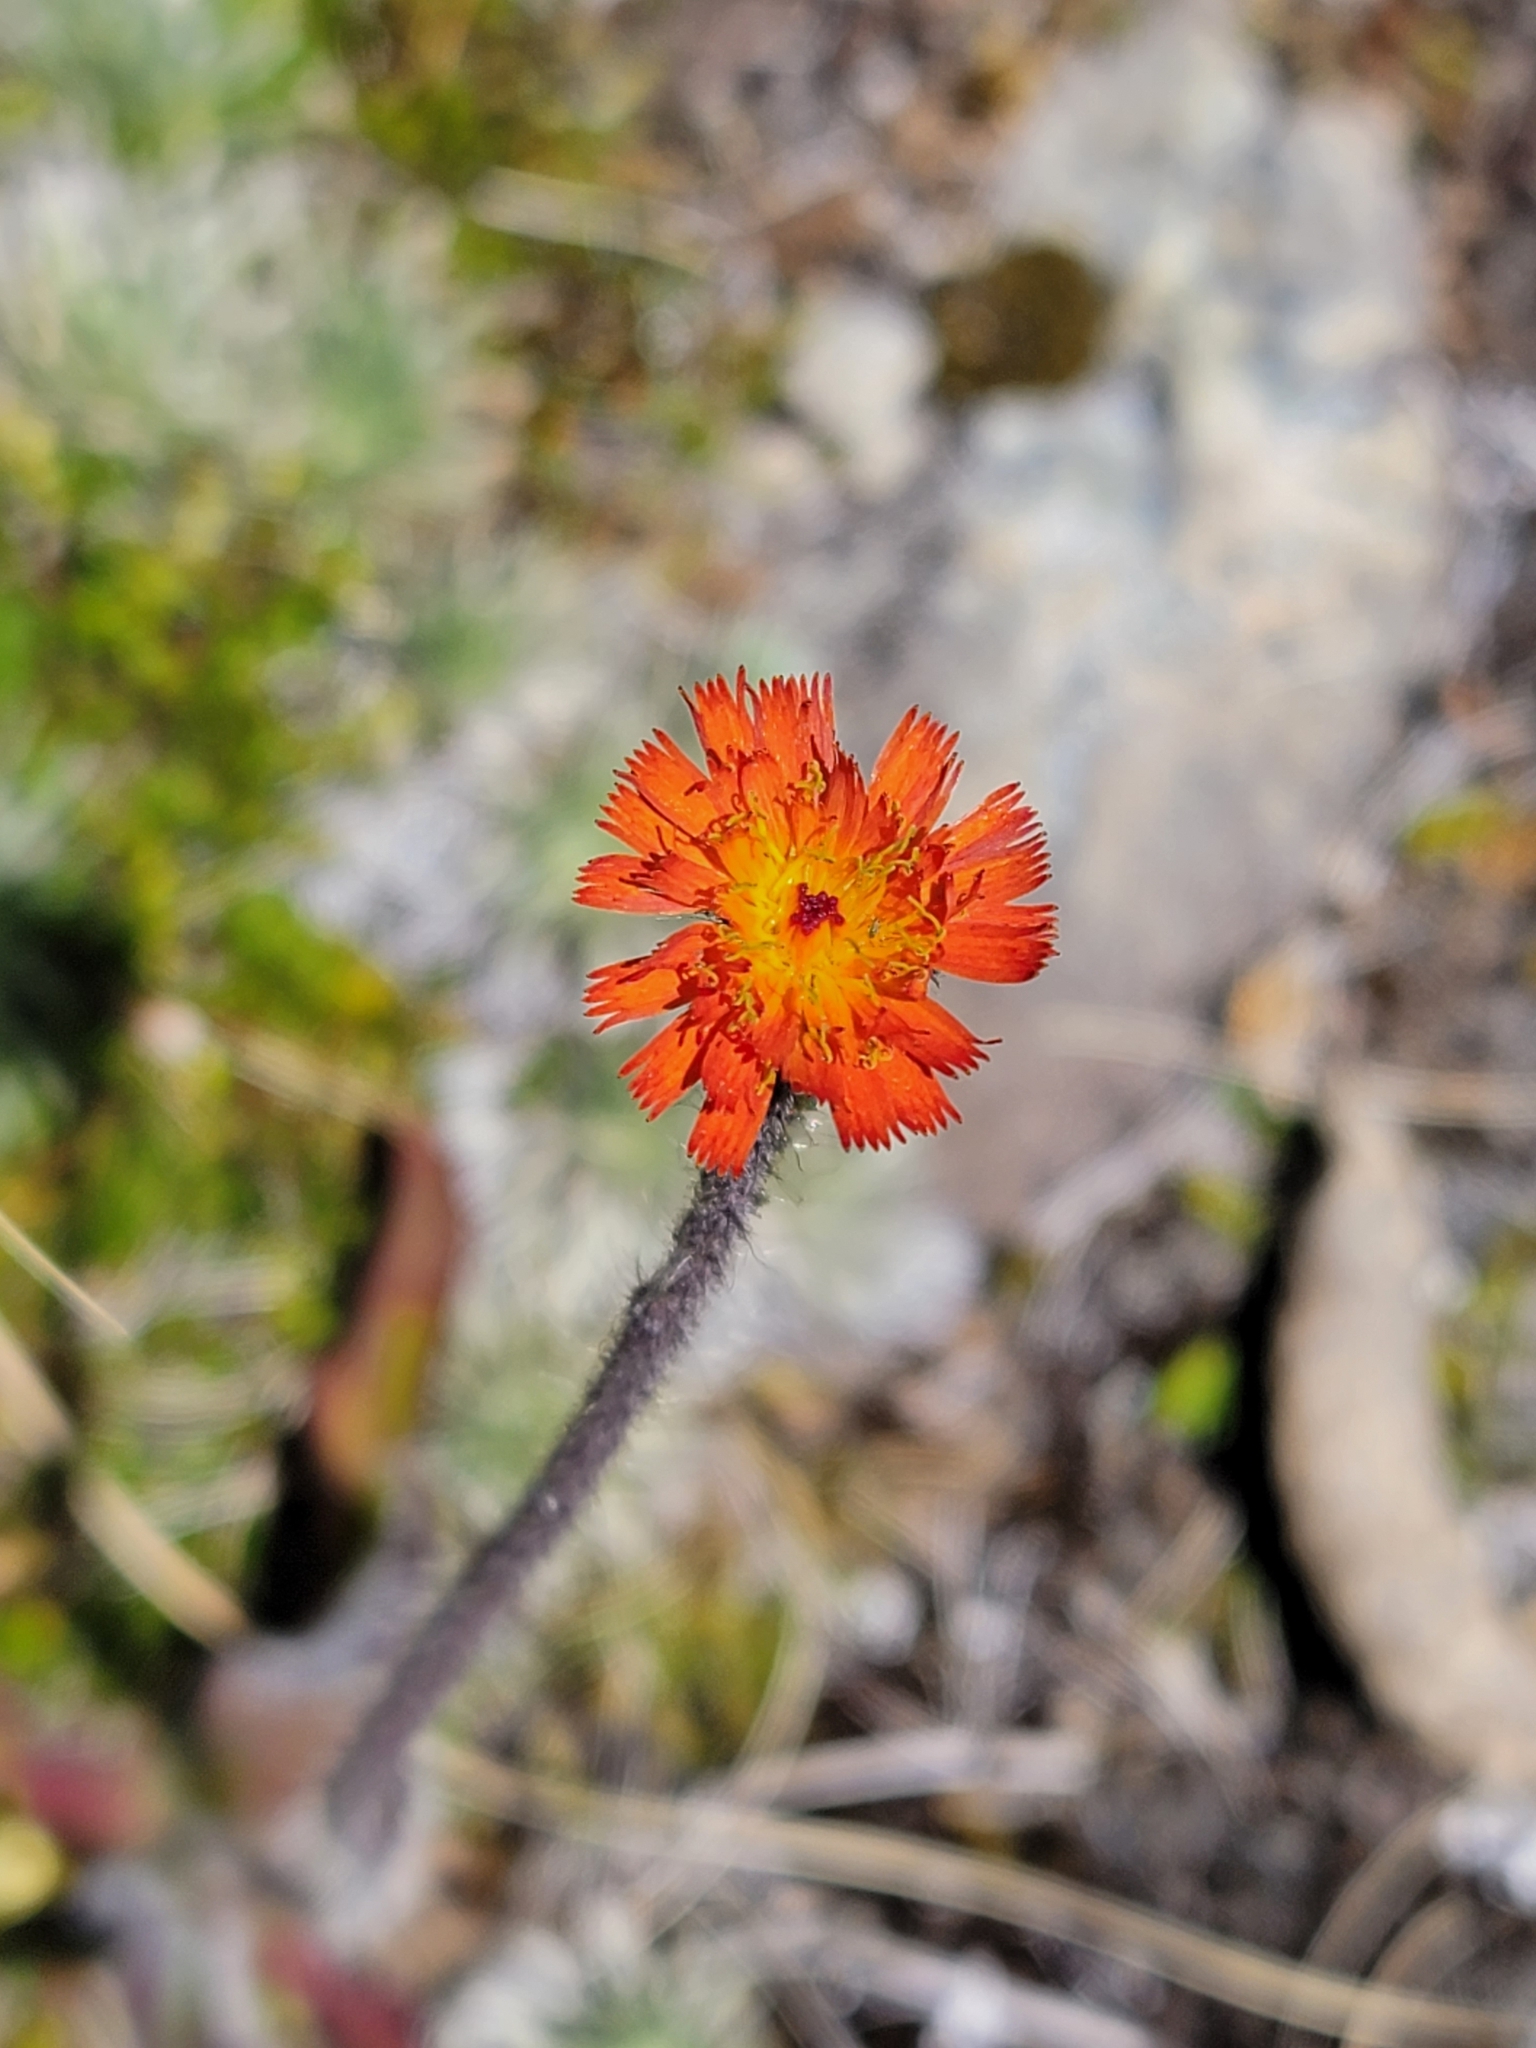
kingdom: Plantae
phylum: Tracheophyta
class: Magnoliopsida
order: Asterales
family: Asteraceae
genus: Pilosella
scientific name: Pilosella aurantiaca
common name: Fox-and-cubs
